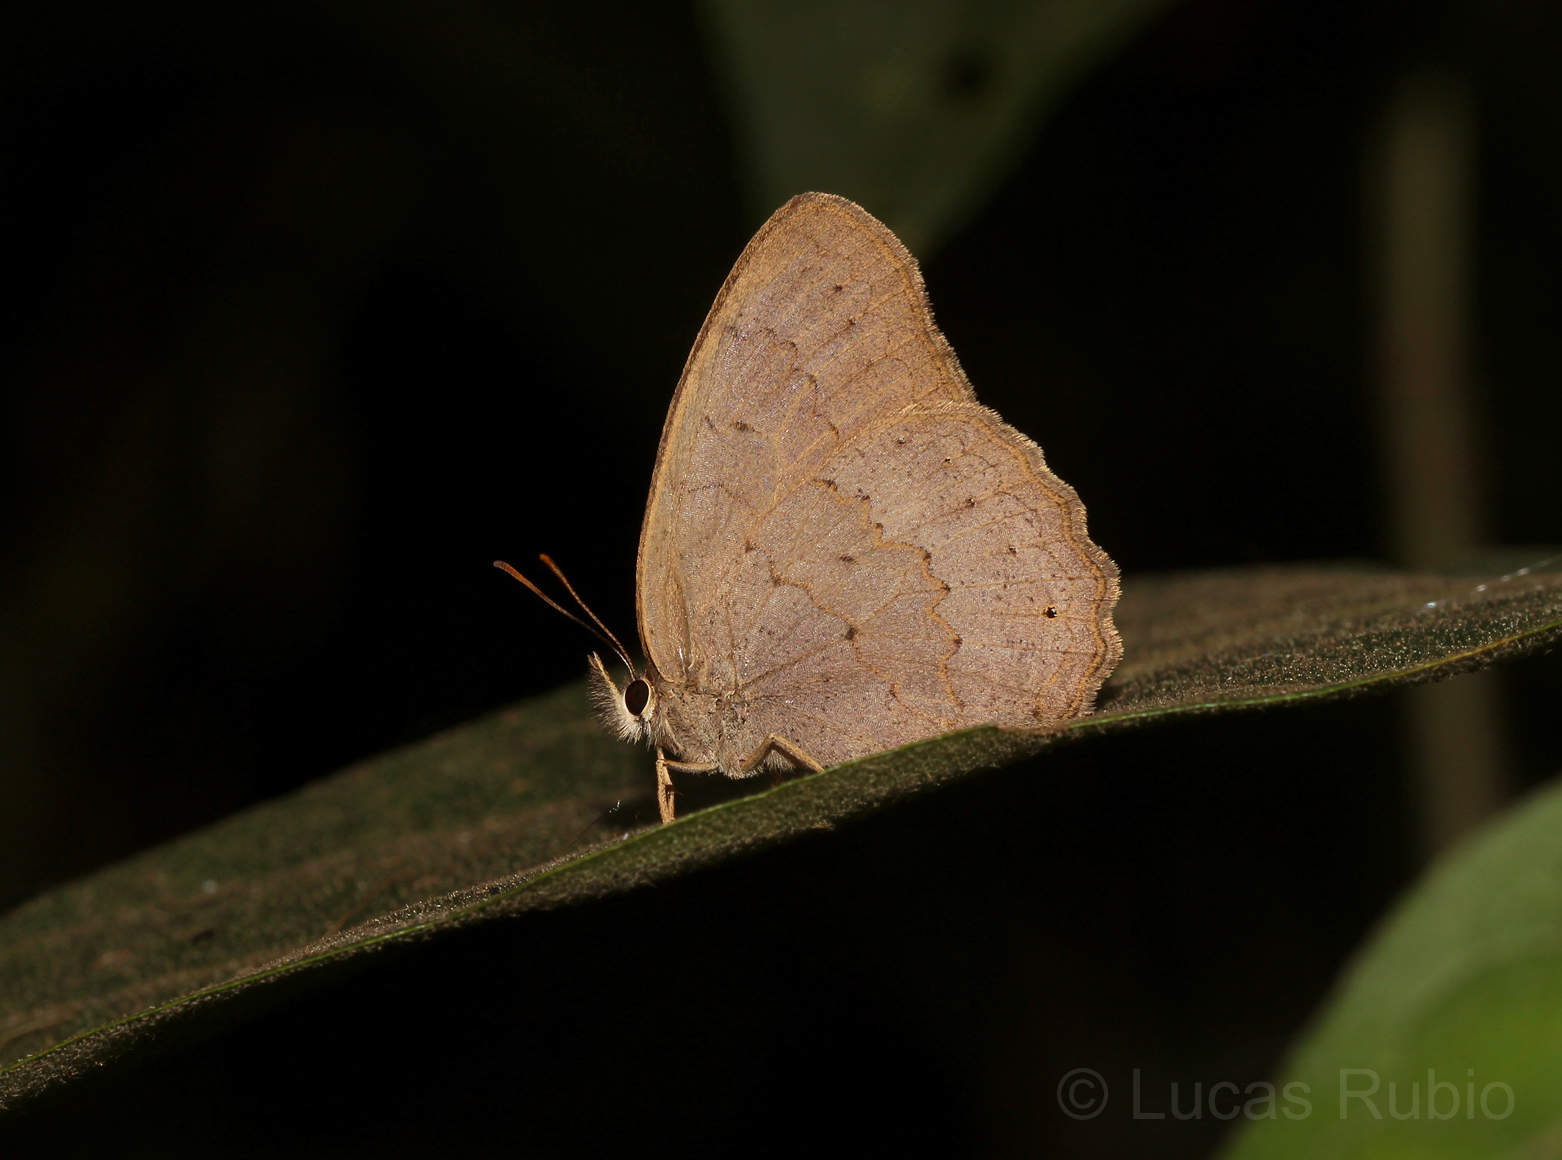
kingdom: Animalia
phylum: Arthropoda
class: Insecta
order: Lepidoptera
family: Nymphalidae
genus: Euptychia
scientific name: Euptychia
